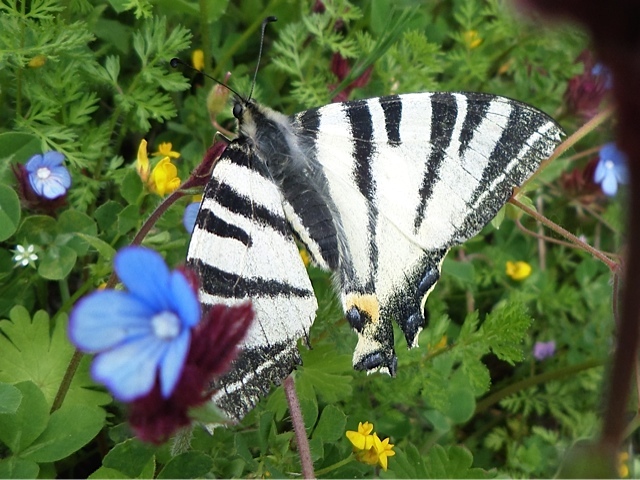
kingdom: Animalia
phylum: Arthropoda
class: Insecta
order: Lepidoptera
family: Papilionidae
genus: Iphiclides
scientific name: Iphiclides podalirius
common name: Scarce swallowtail
